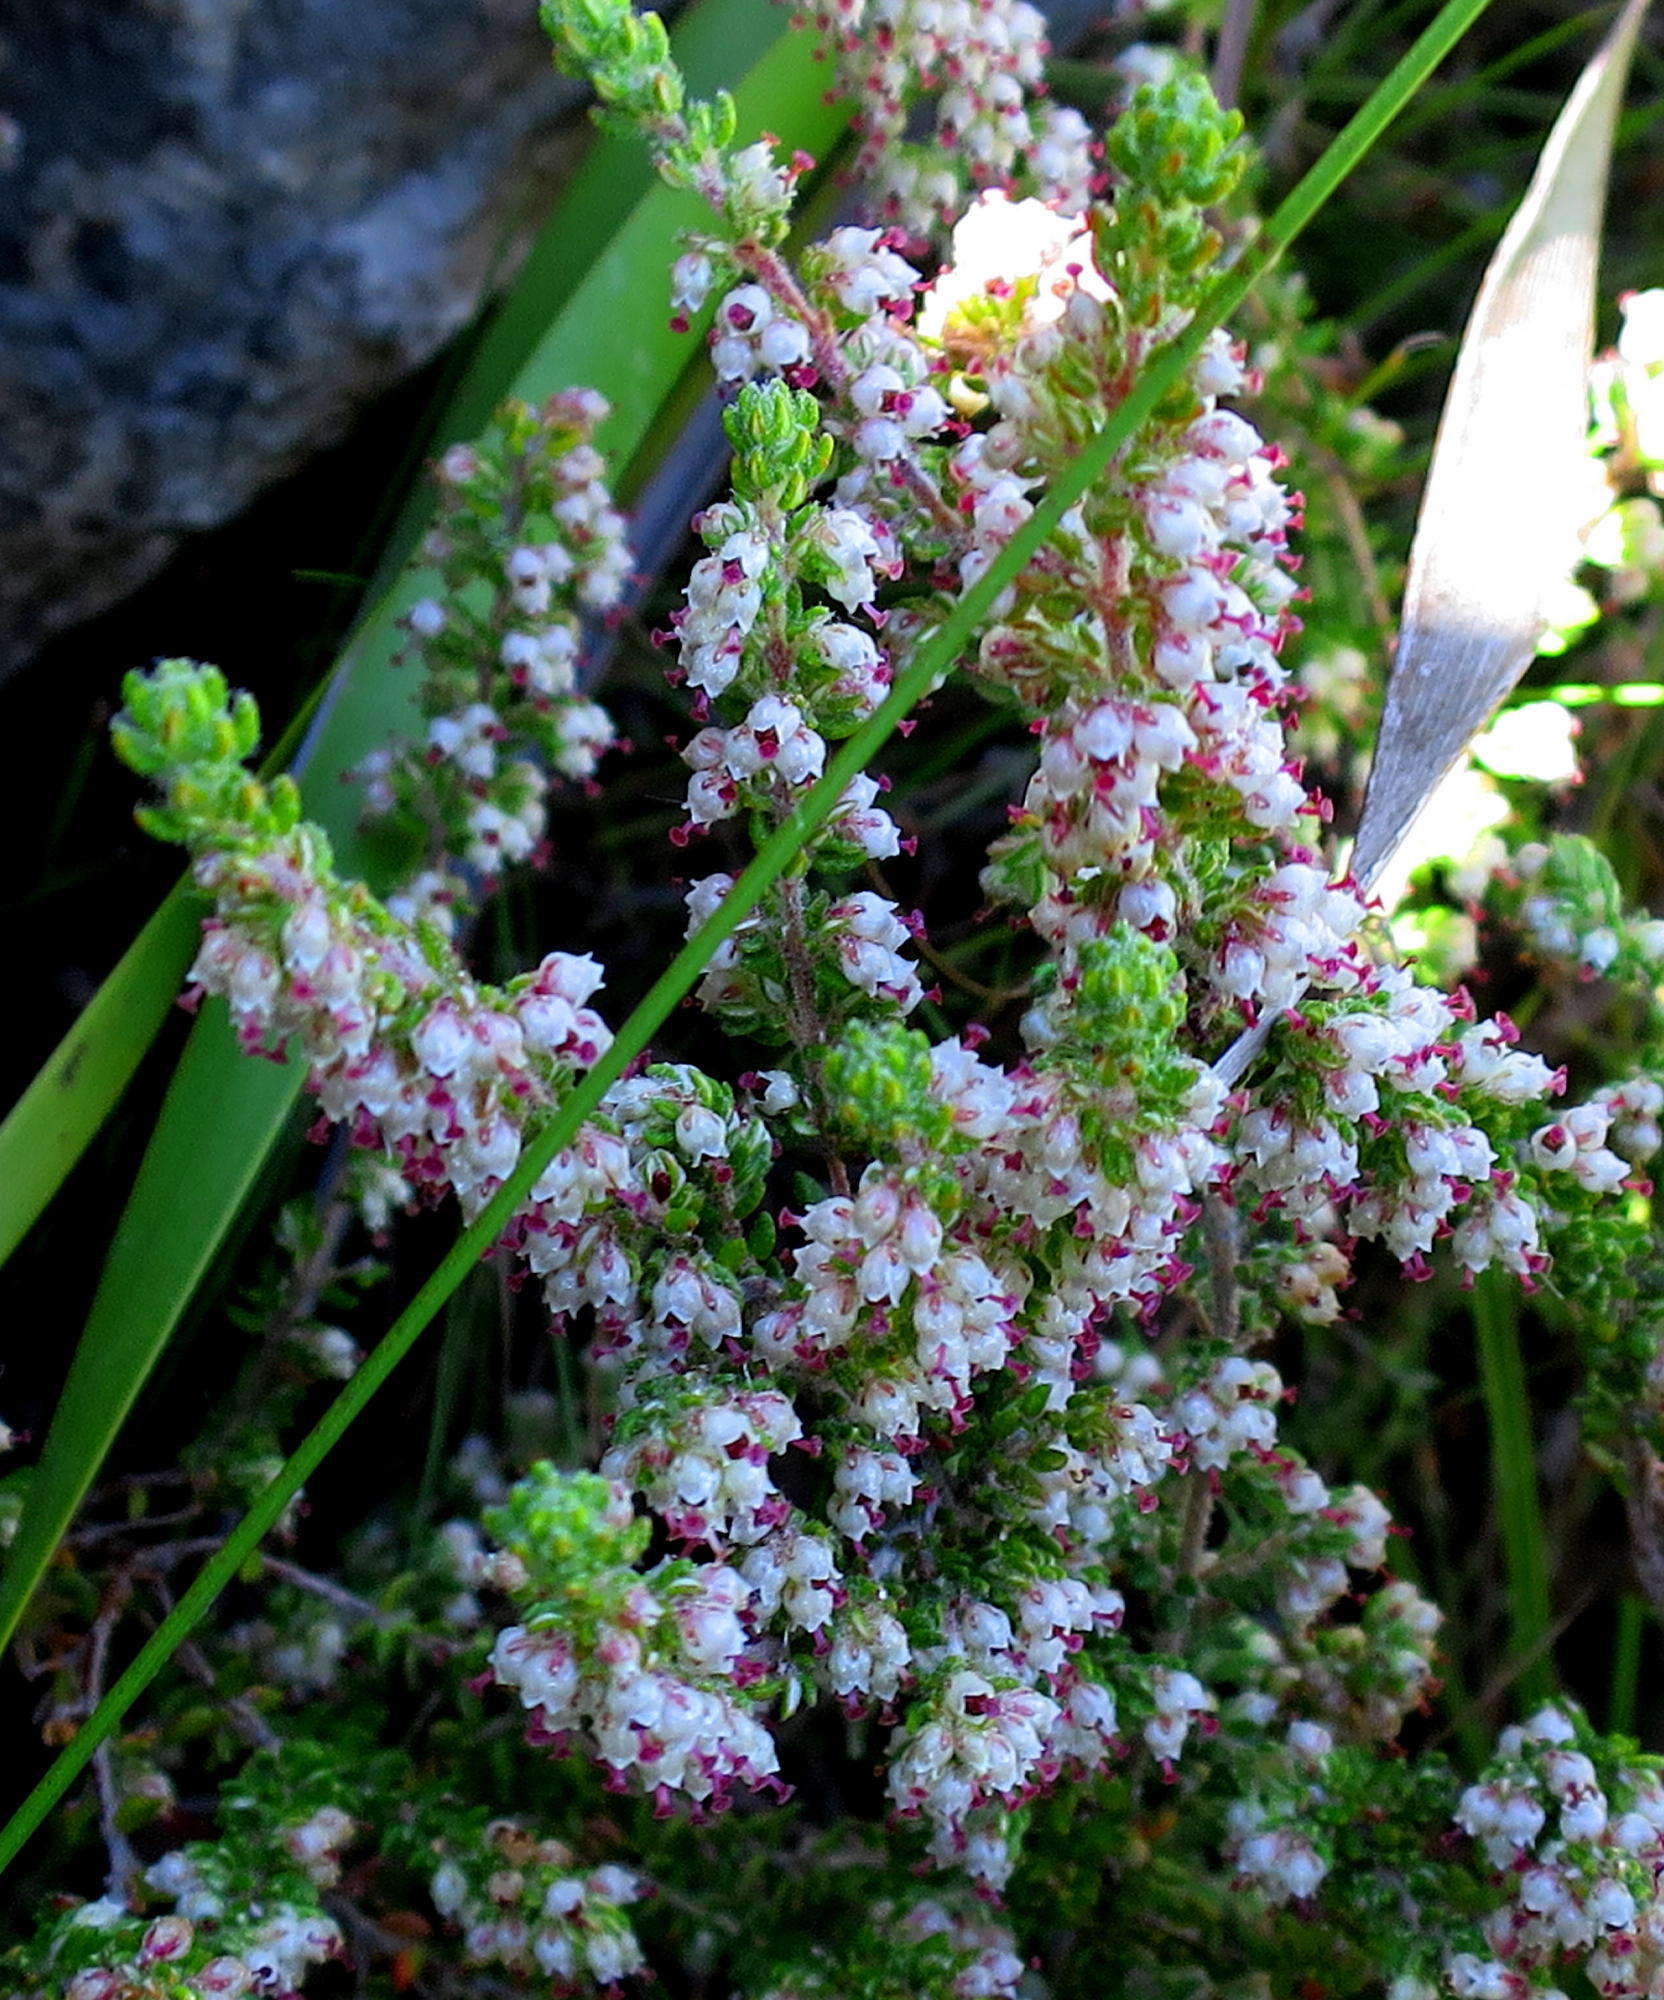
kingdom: Plantae
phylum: Tracheophyta
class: Magnoliopsida
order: Ericales
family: Ericaceae
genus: Erica
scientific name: Erica cordata
